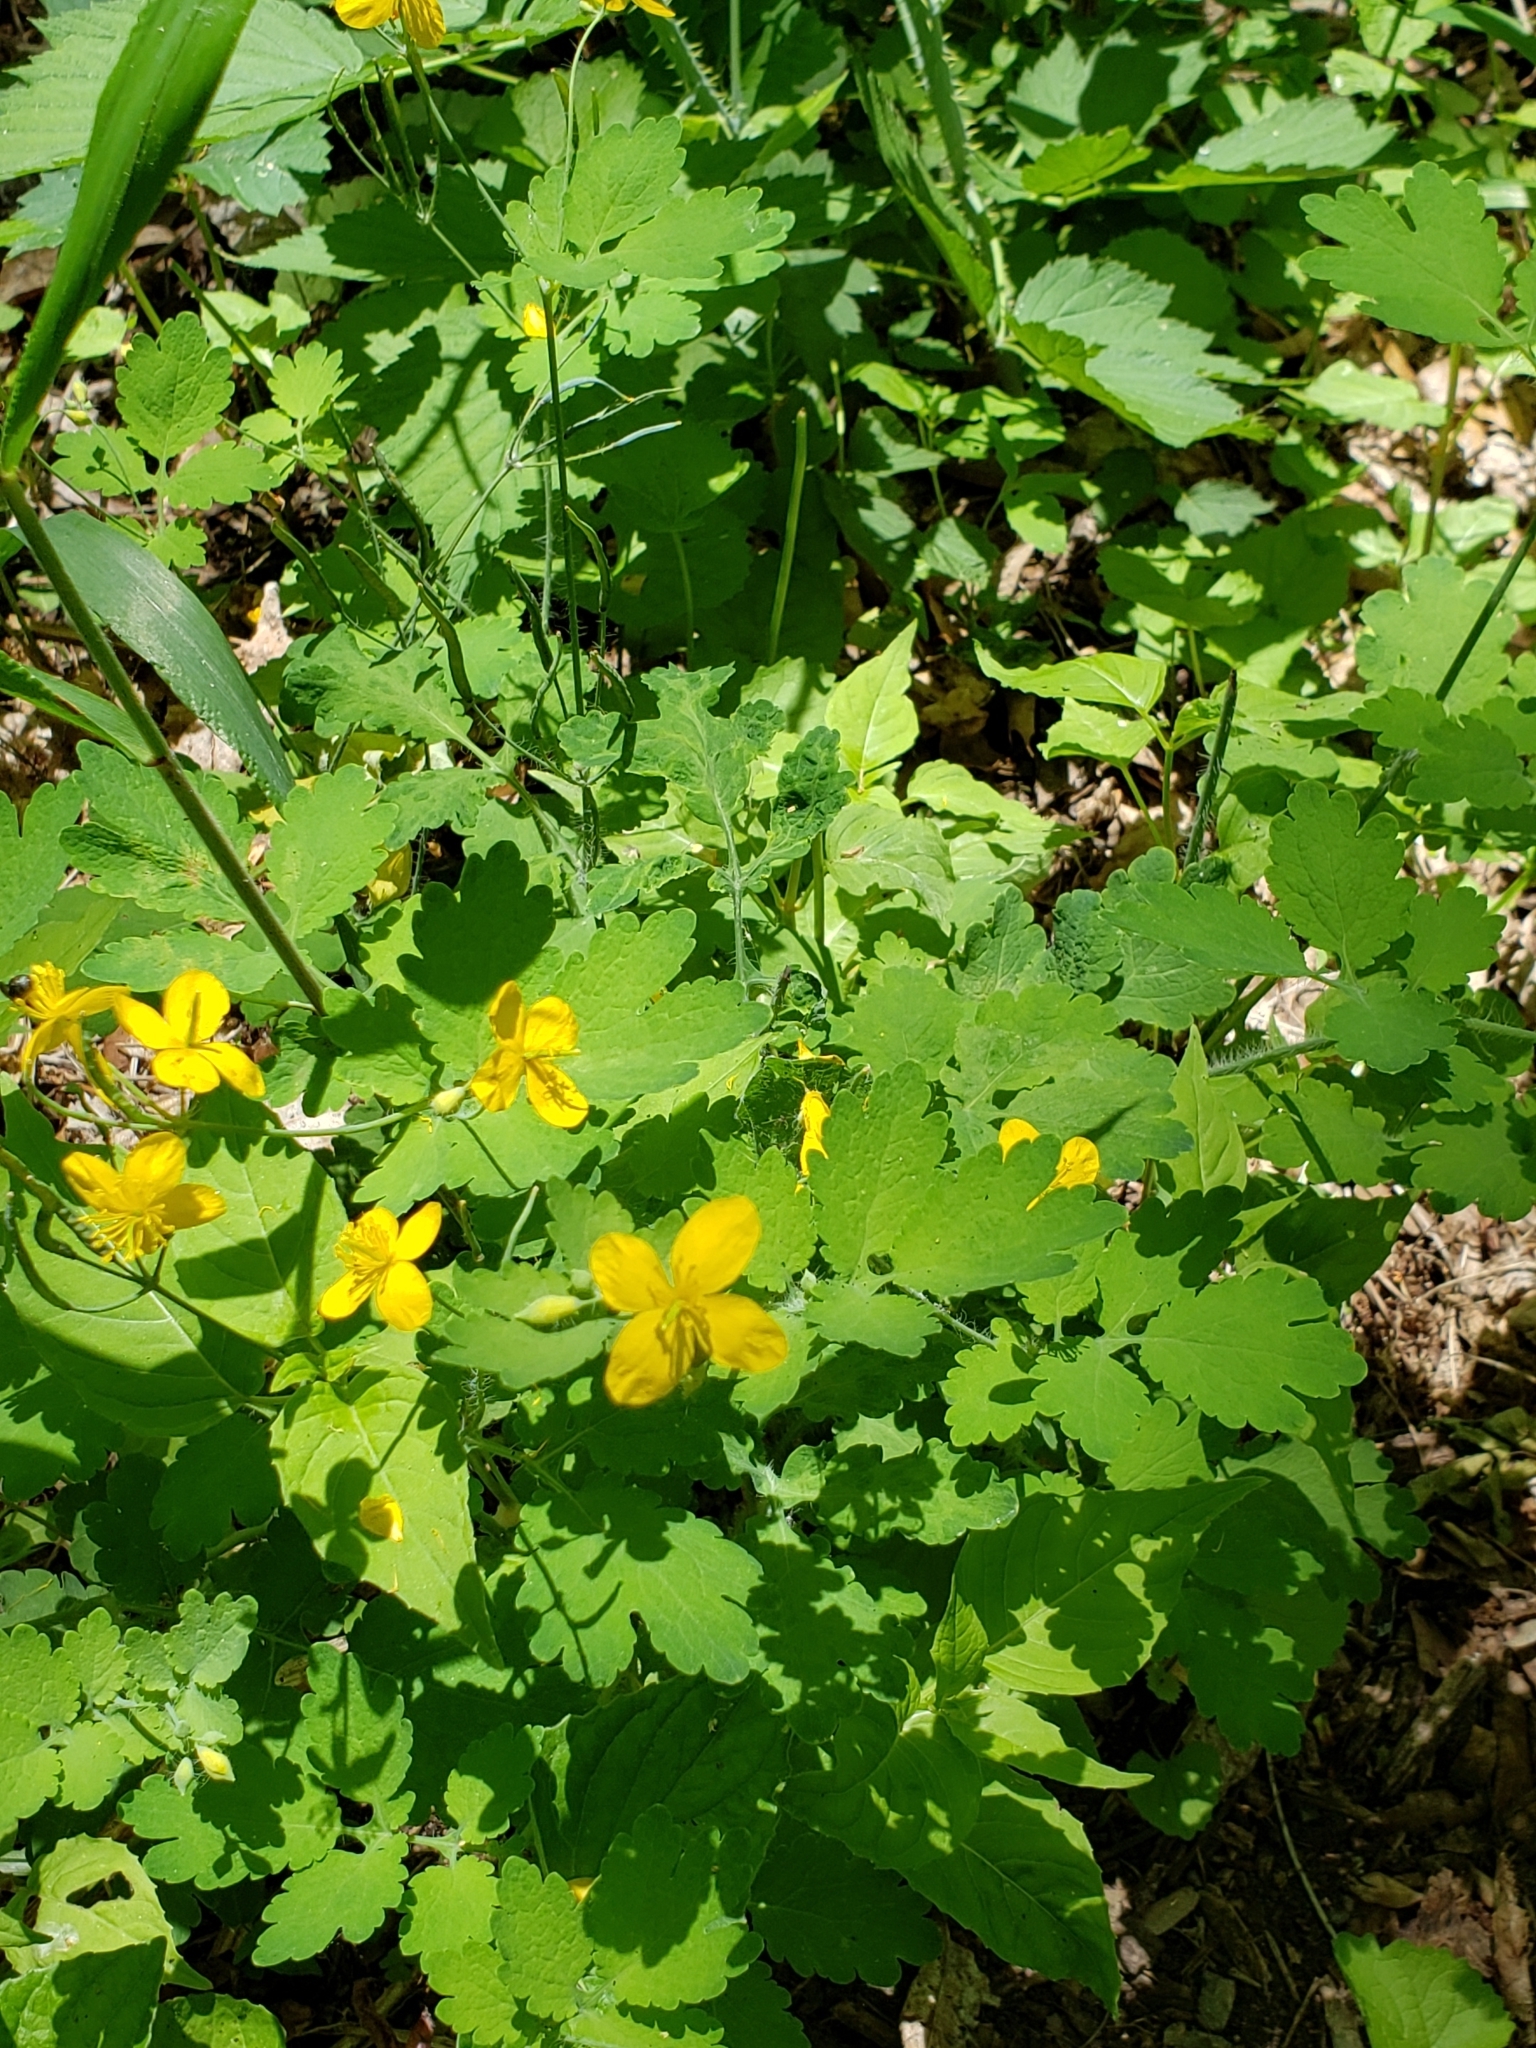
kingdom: Plantae
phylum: Tracheophyta
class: Magnoliopsida
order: Ranunculales
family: Papaveraceae
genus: Chelidonium
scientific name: Chelidonium majus
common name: Greater celandine
